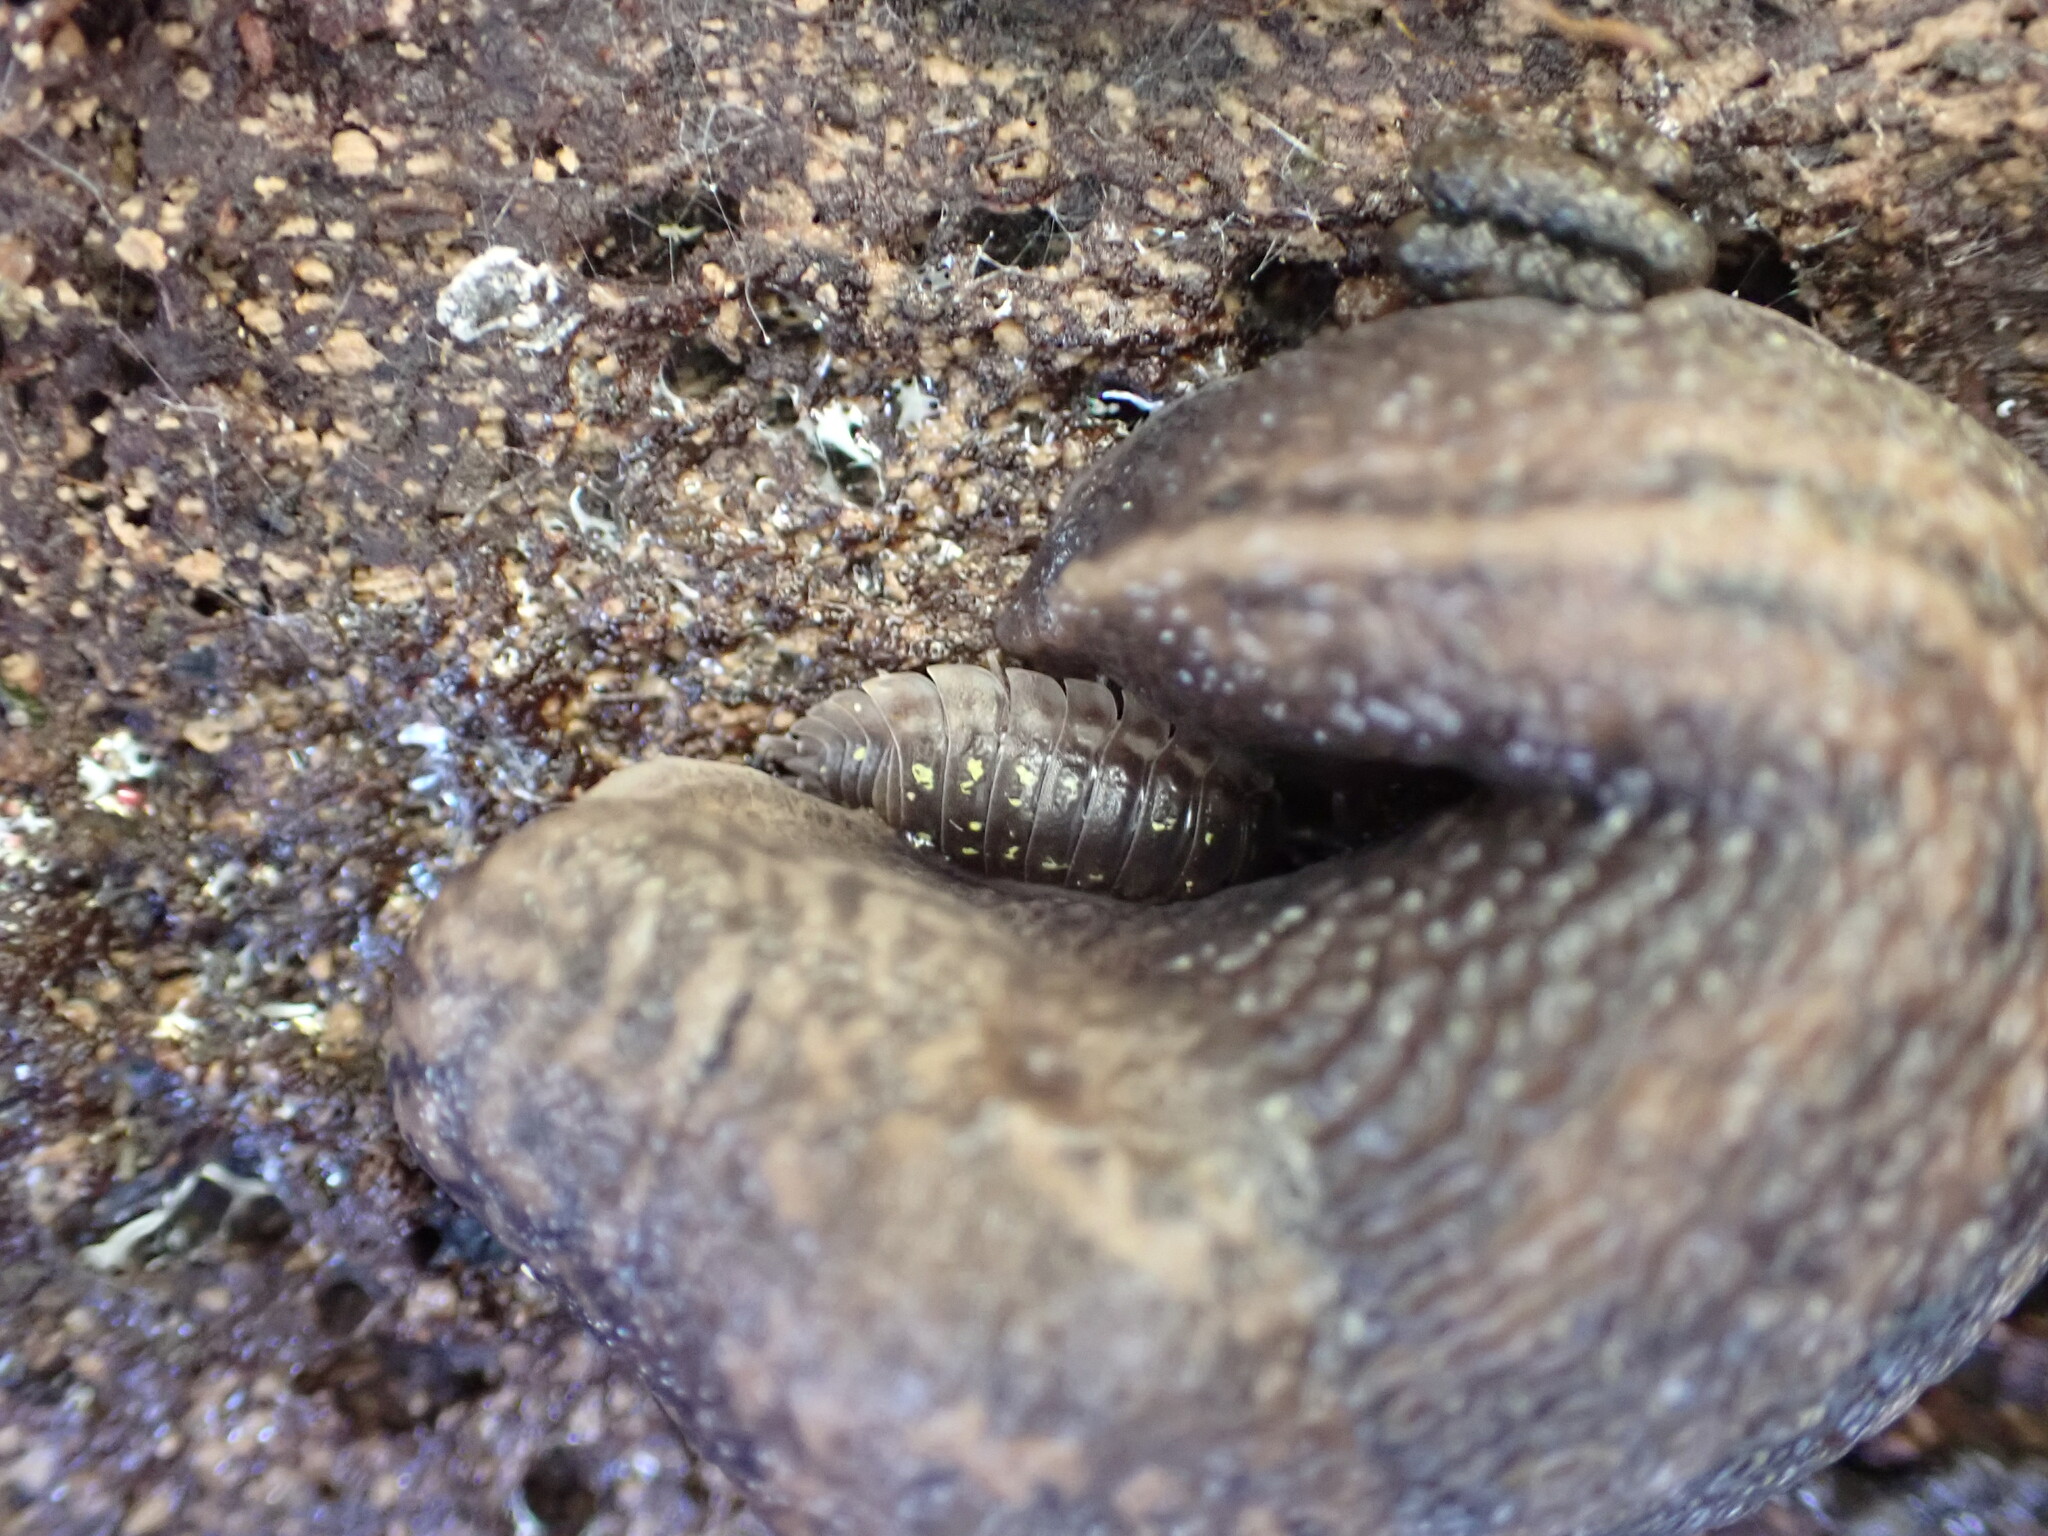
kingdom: Animalia
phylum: Arthropoda
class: Malacostraca
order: Isopoda
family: Oniscidae
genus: Oniscus
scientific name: Oniscus asellus
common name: Common shiny woodlouse
